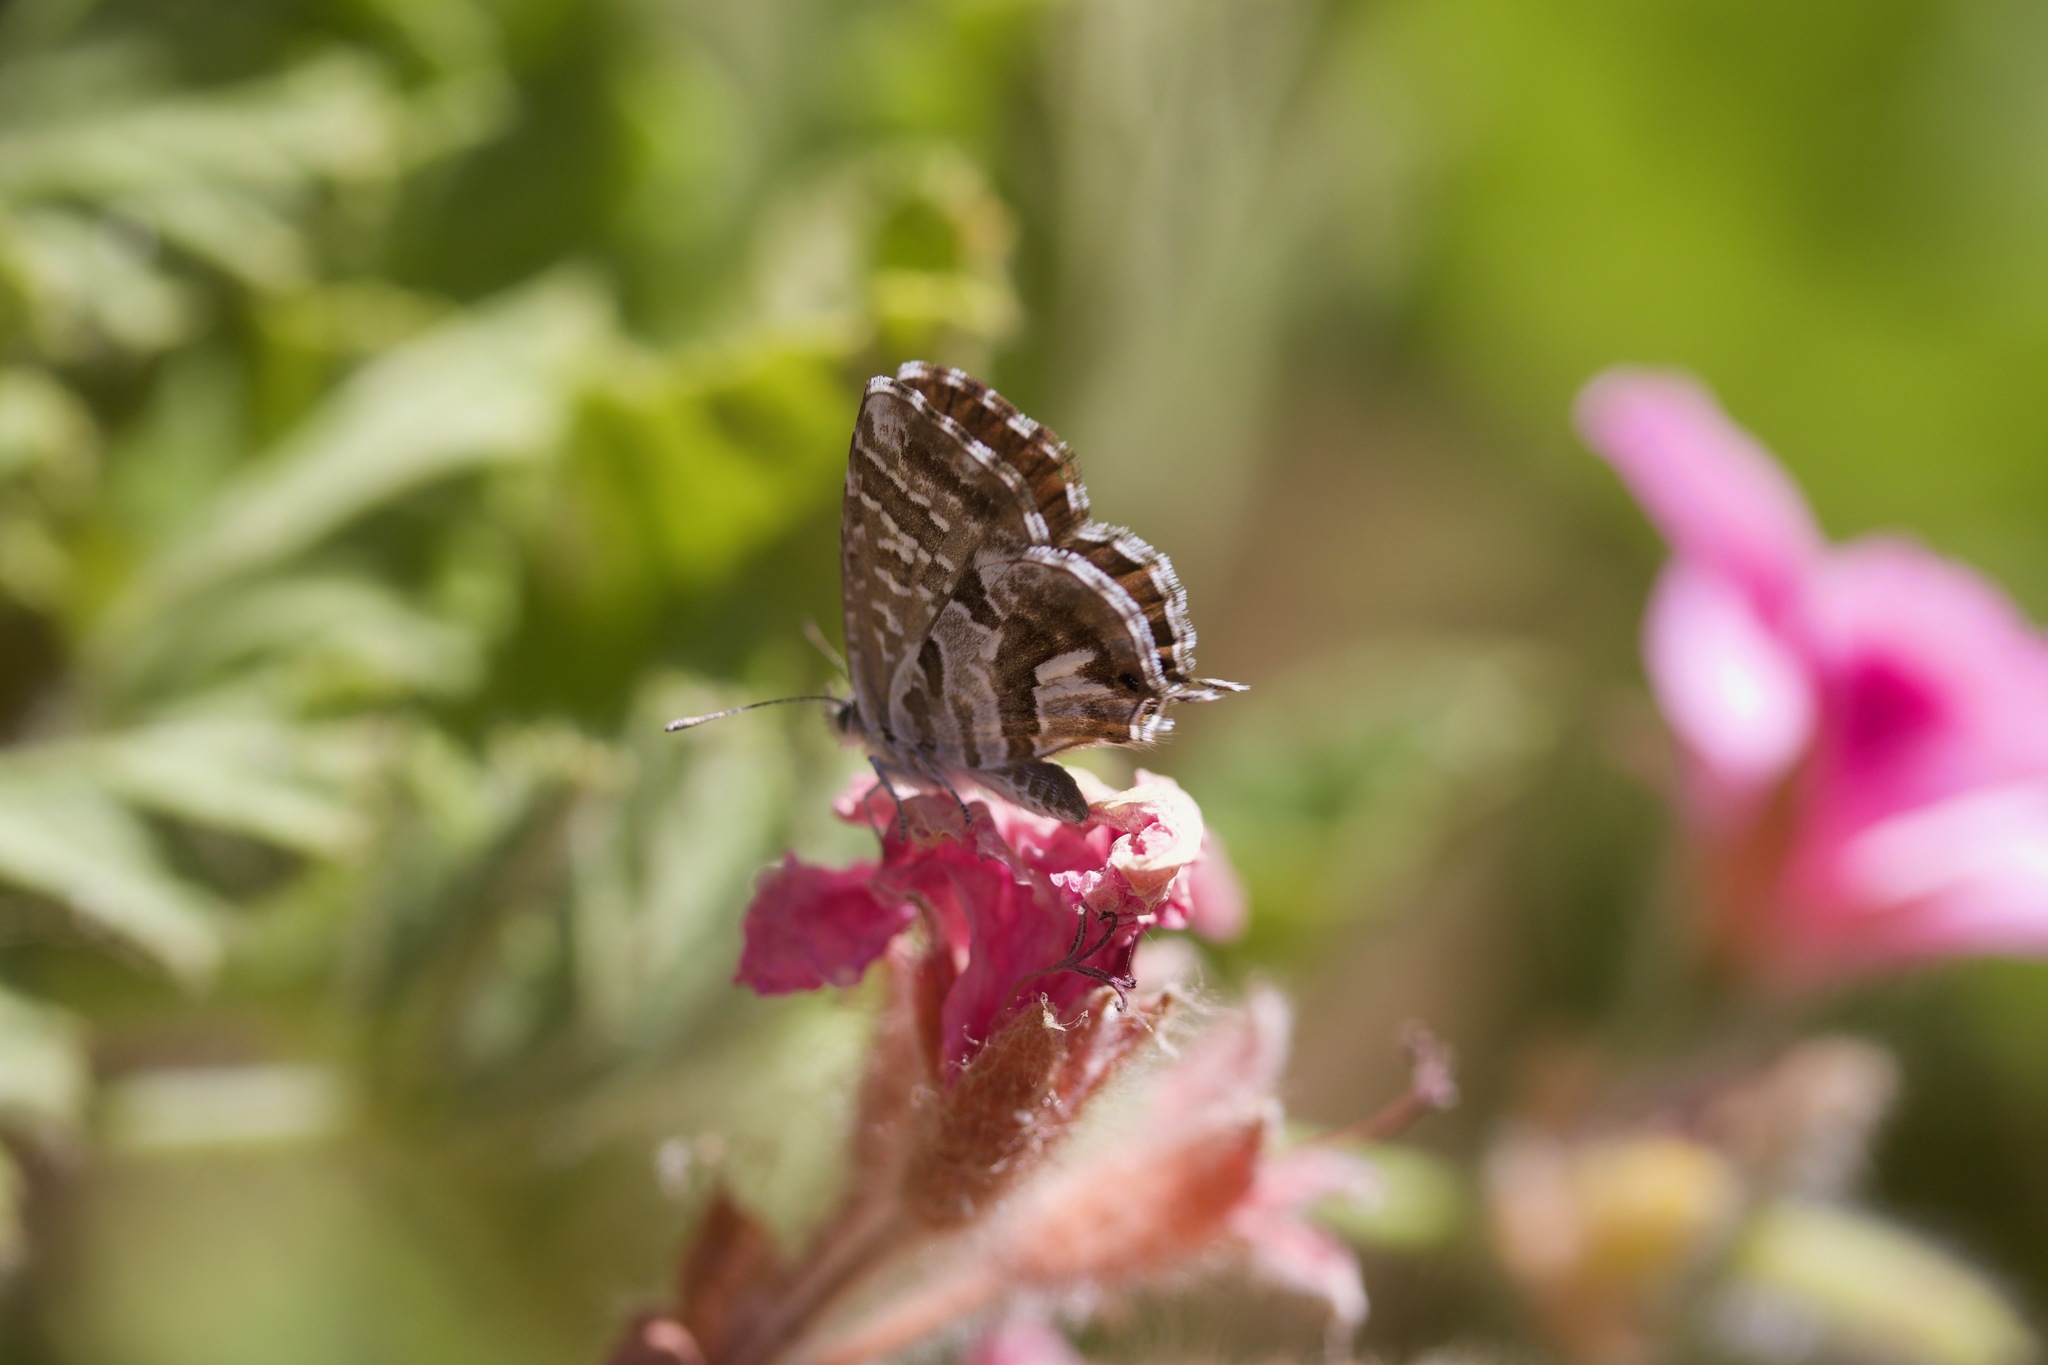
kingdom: Animalia
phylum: Arthropoda
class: Insecta
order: Lepidoptera
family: Lycaenidae
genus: Cacyreus
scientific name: Cacyreus marshalli
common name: Geranium bronze
